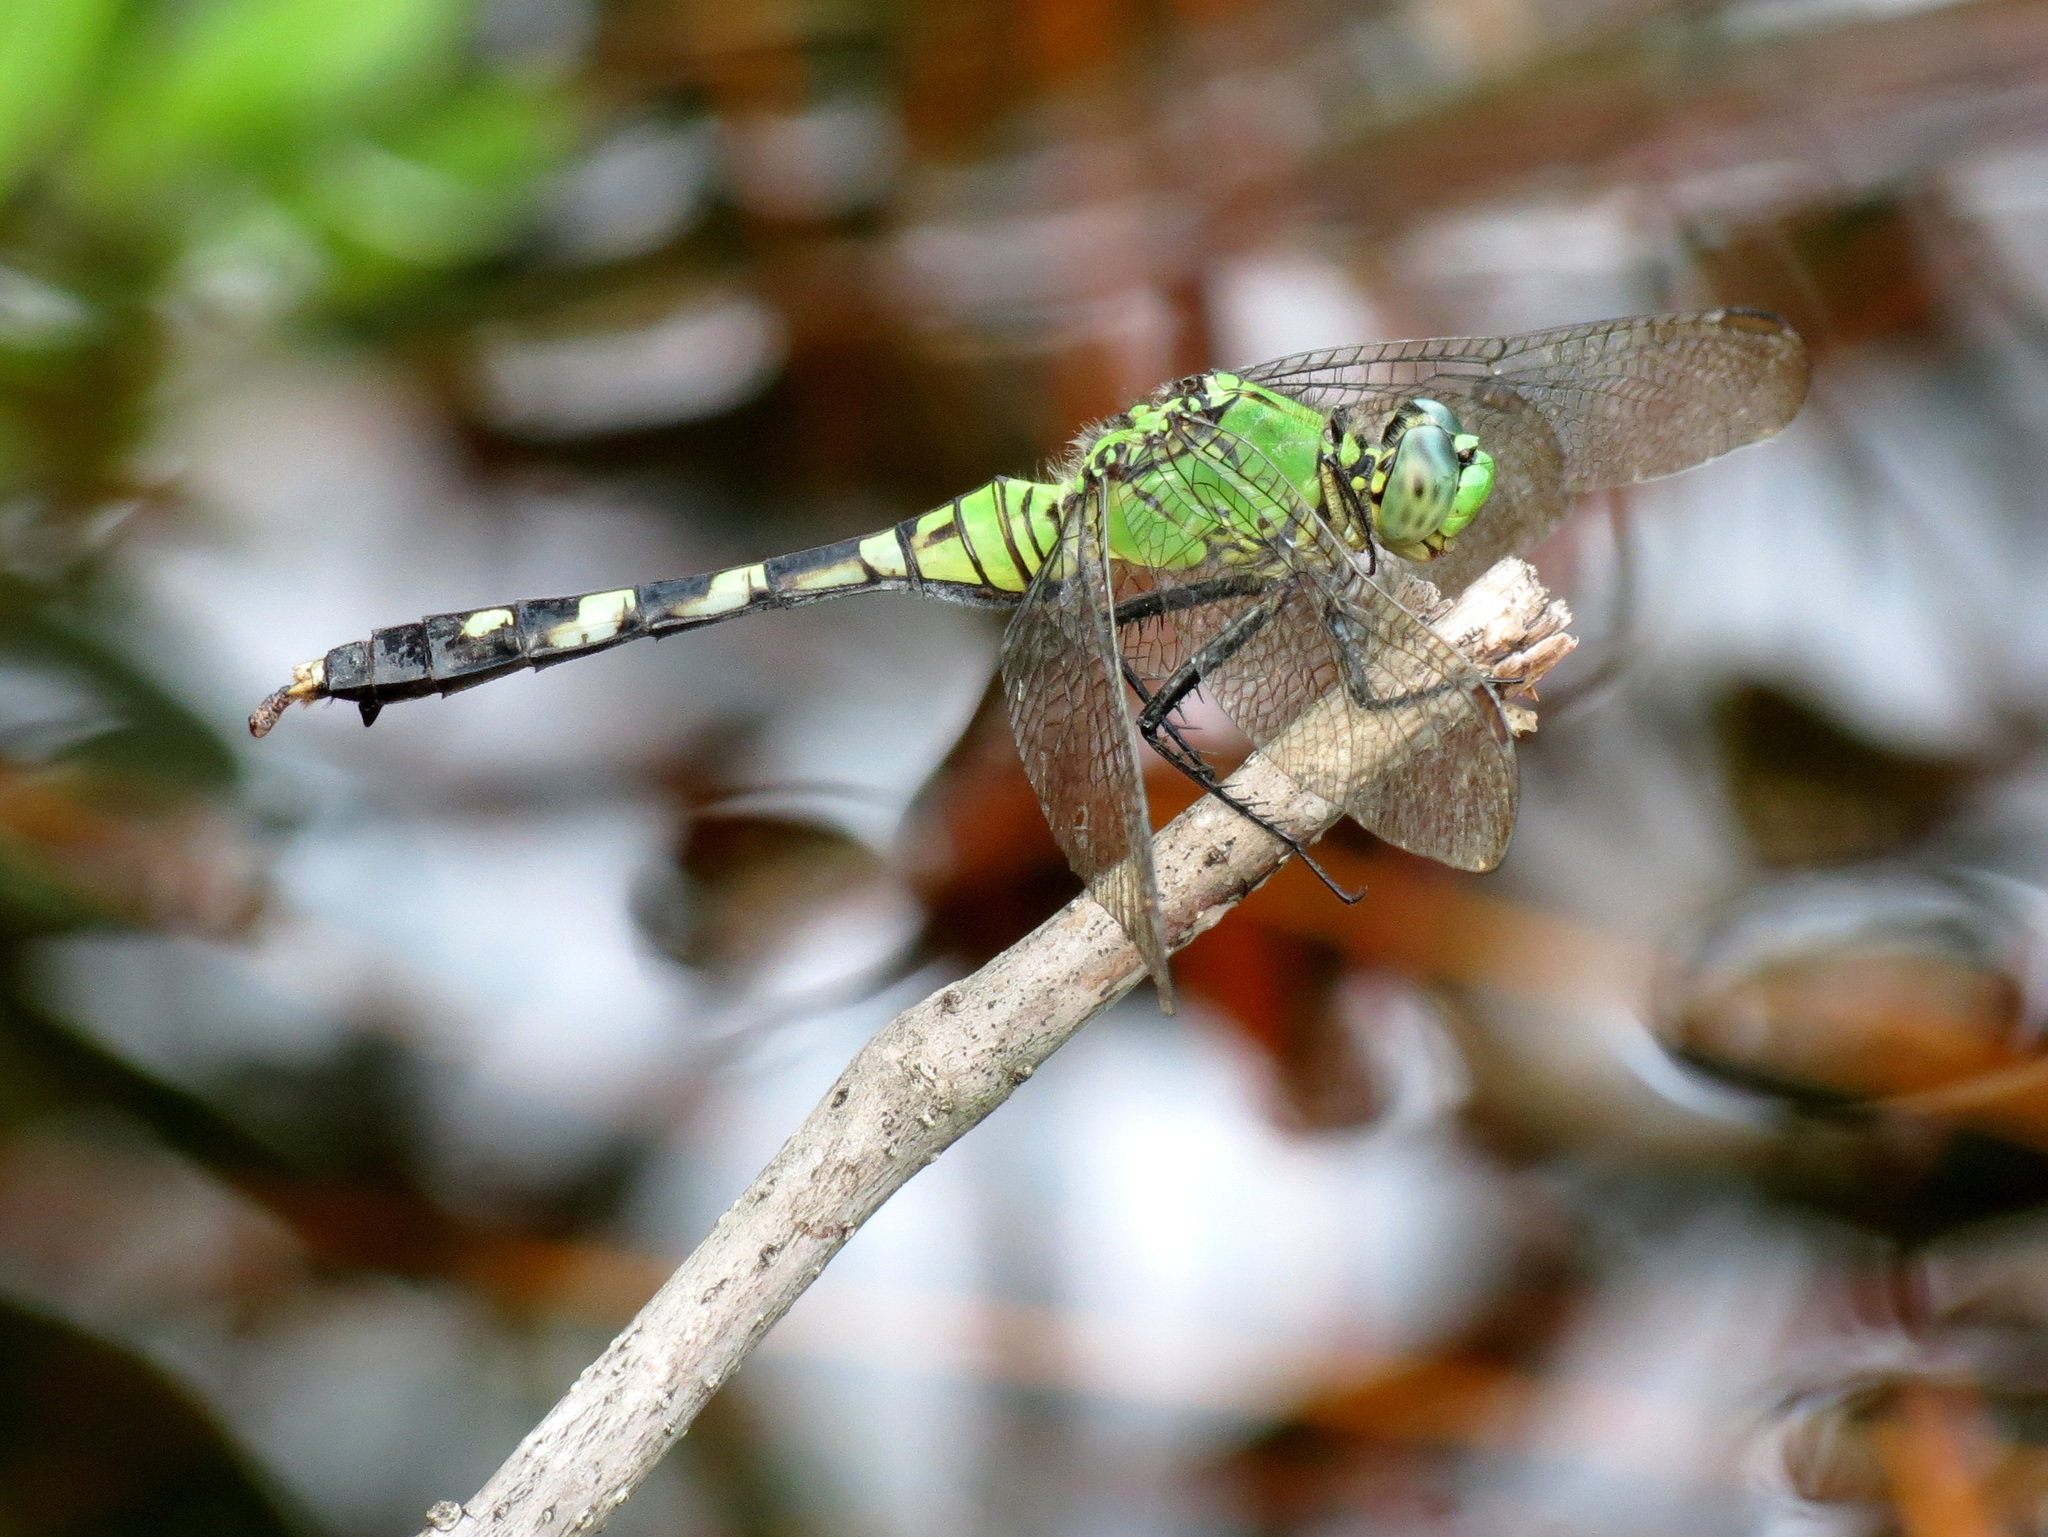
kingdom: Animalia
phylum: Arthropoda
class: Insecta
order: Odonata
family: Libellulidae
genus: Erythemis
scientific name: Erythemis simplicicollis
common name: Eastern pondhawk
